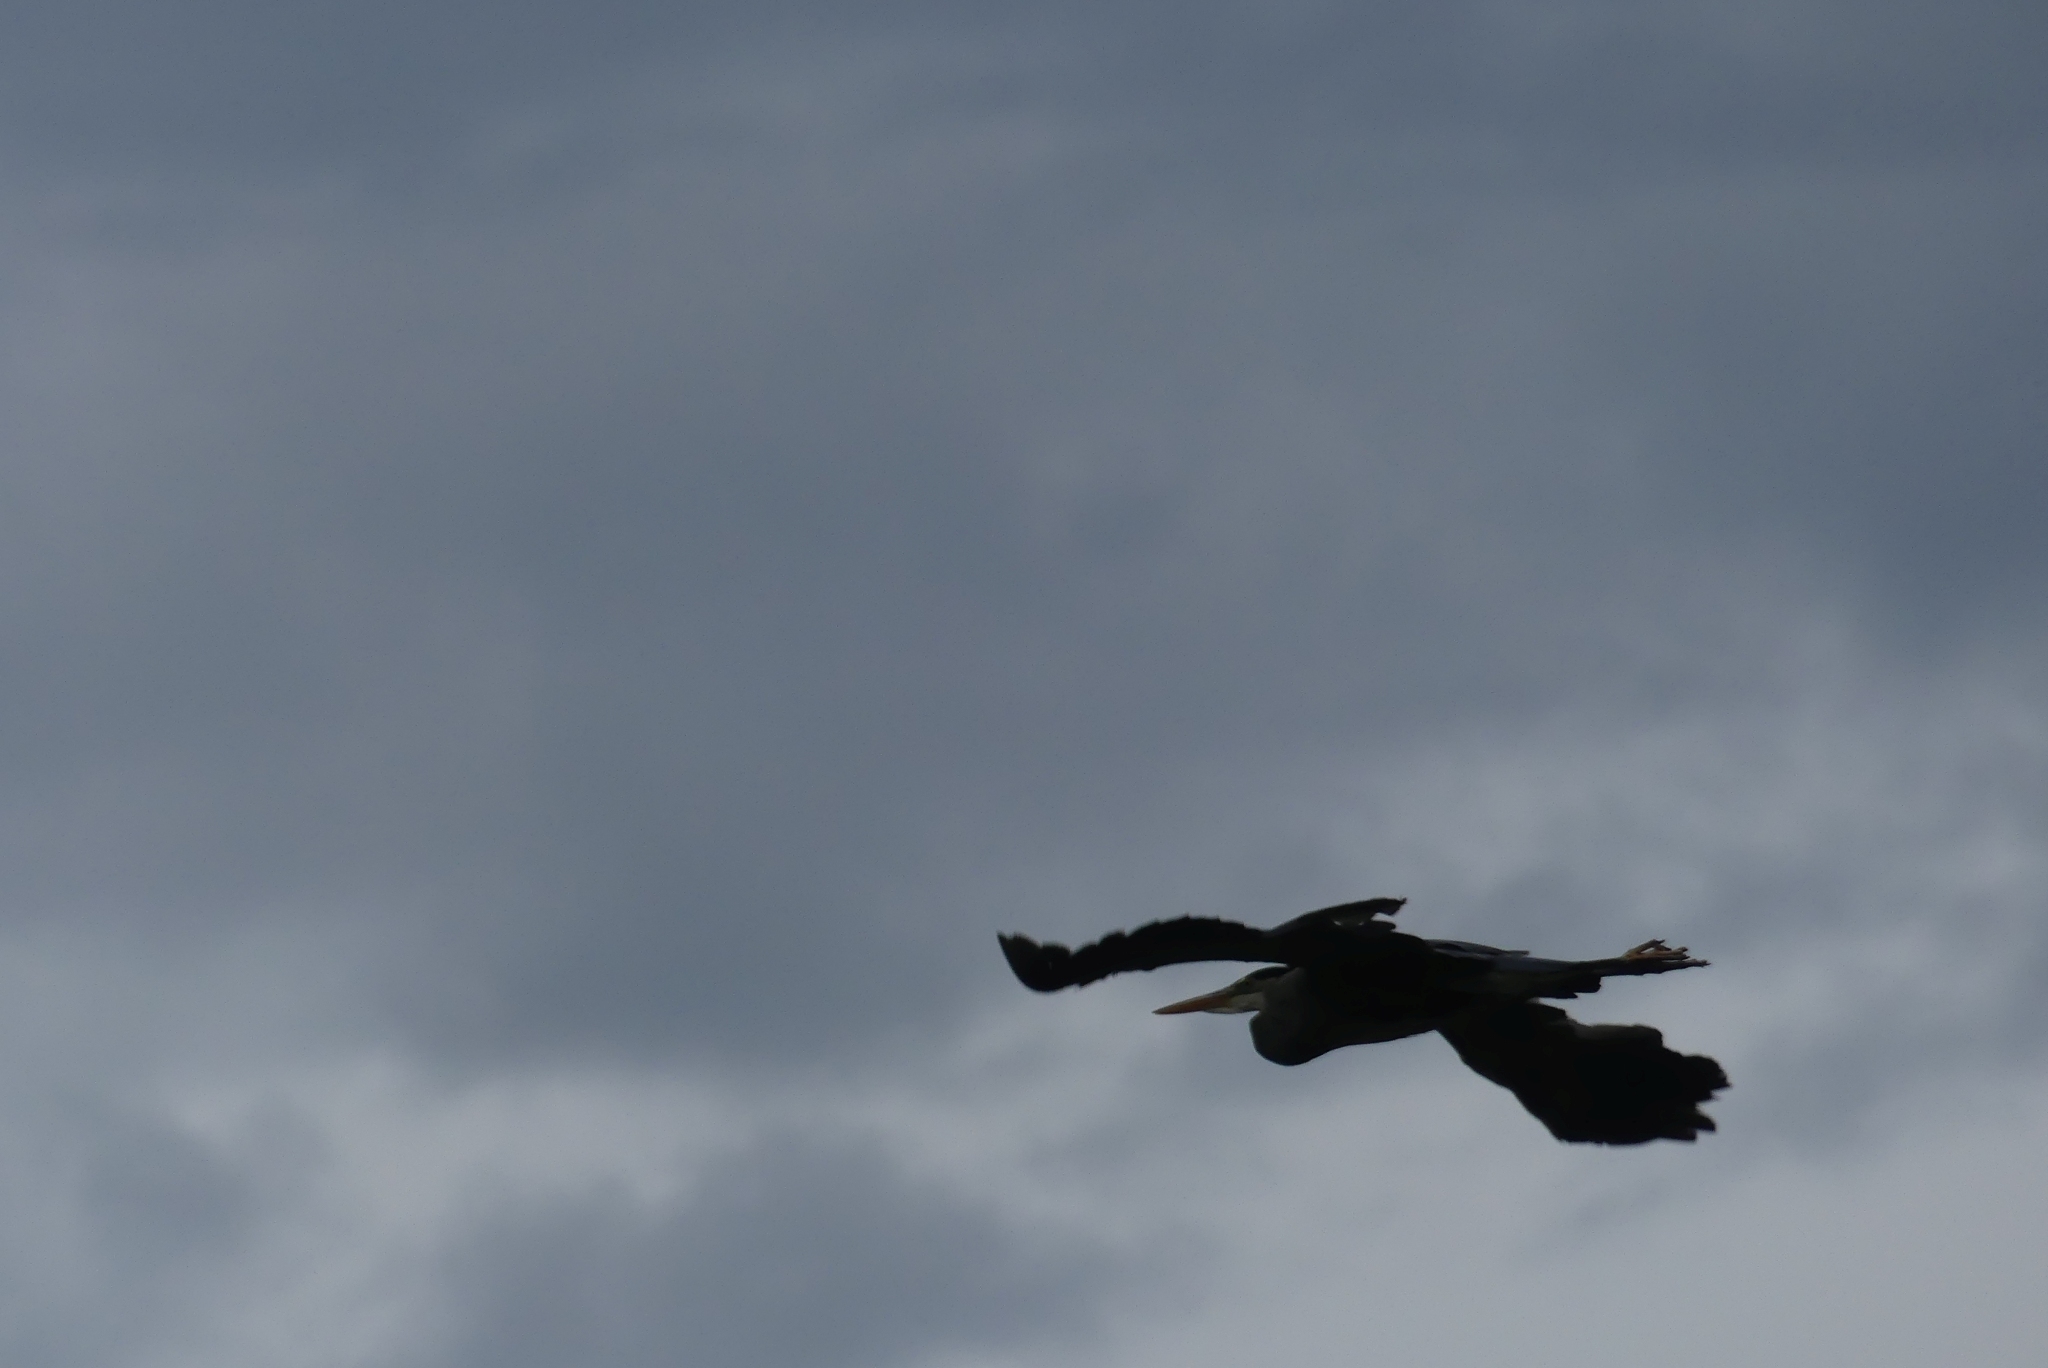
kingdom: Animalia
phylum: Chordata
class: Aves
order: Pelecaniformes
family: Ardeidae
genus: Ardea
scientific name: Ardea herodias
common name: Great blue heron
